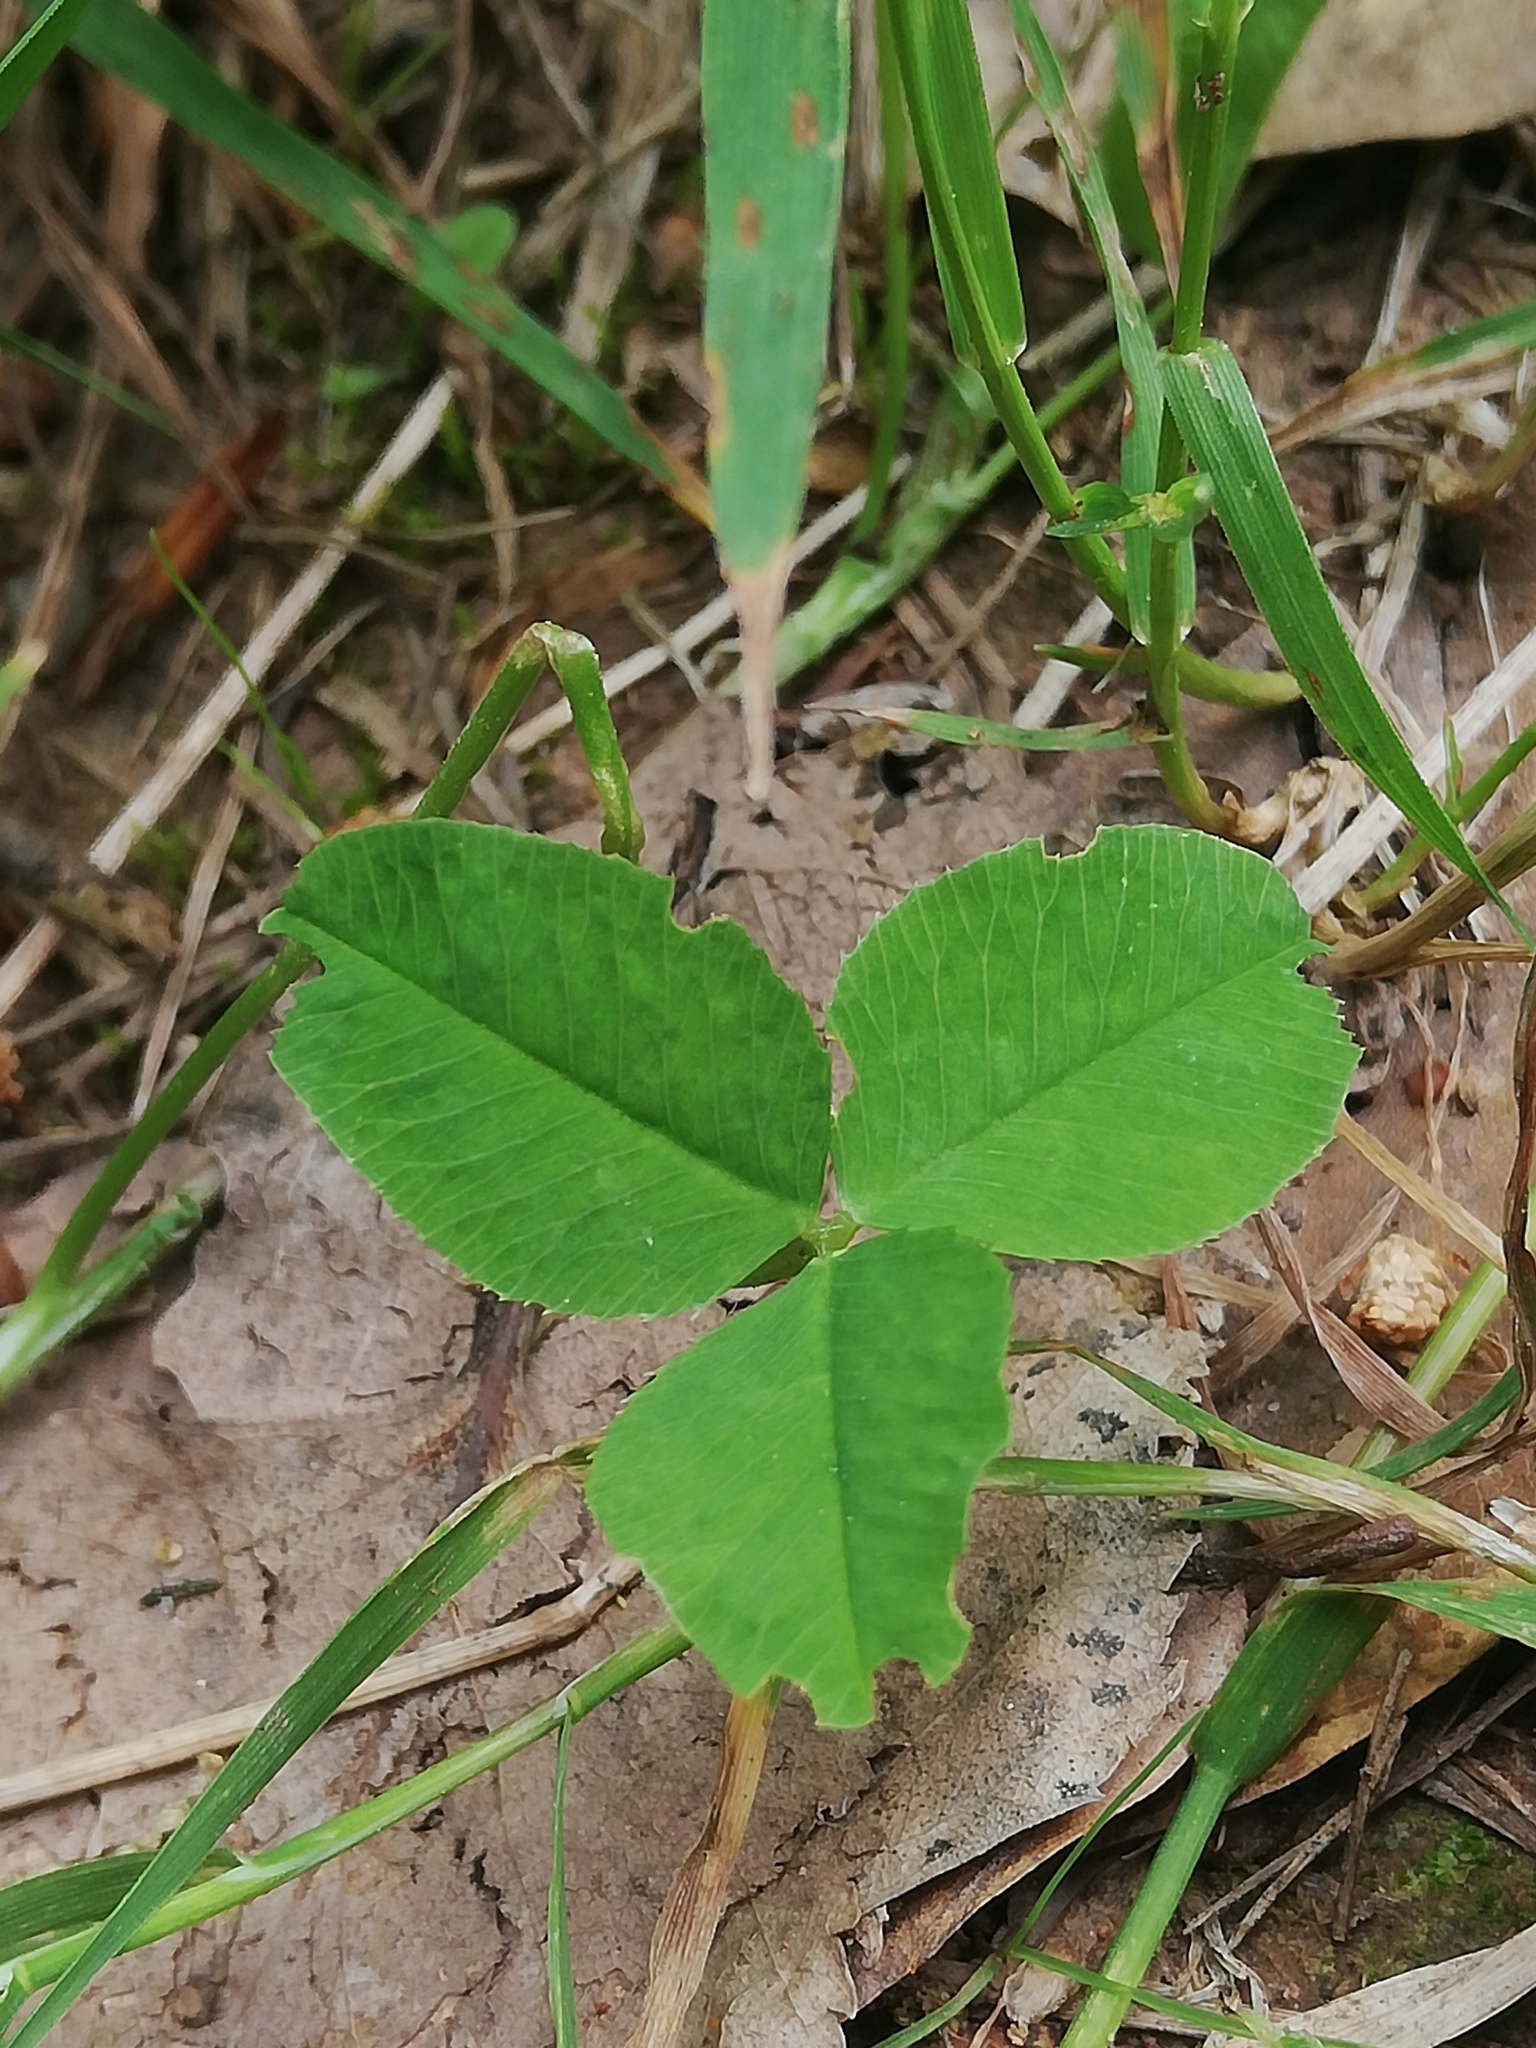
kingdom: Plantae
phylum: Tracheophyta
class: Magnoliopsida
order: Fabales
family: Fabaceae
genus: Trifolium
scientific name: Trifolium repens
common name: White clover
